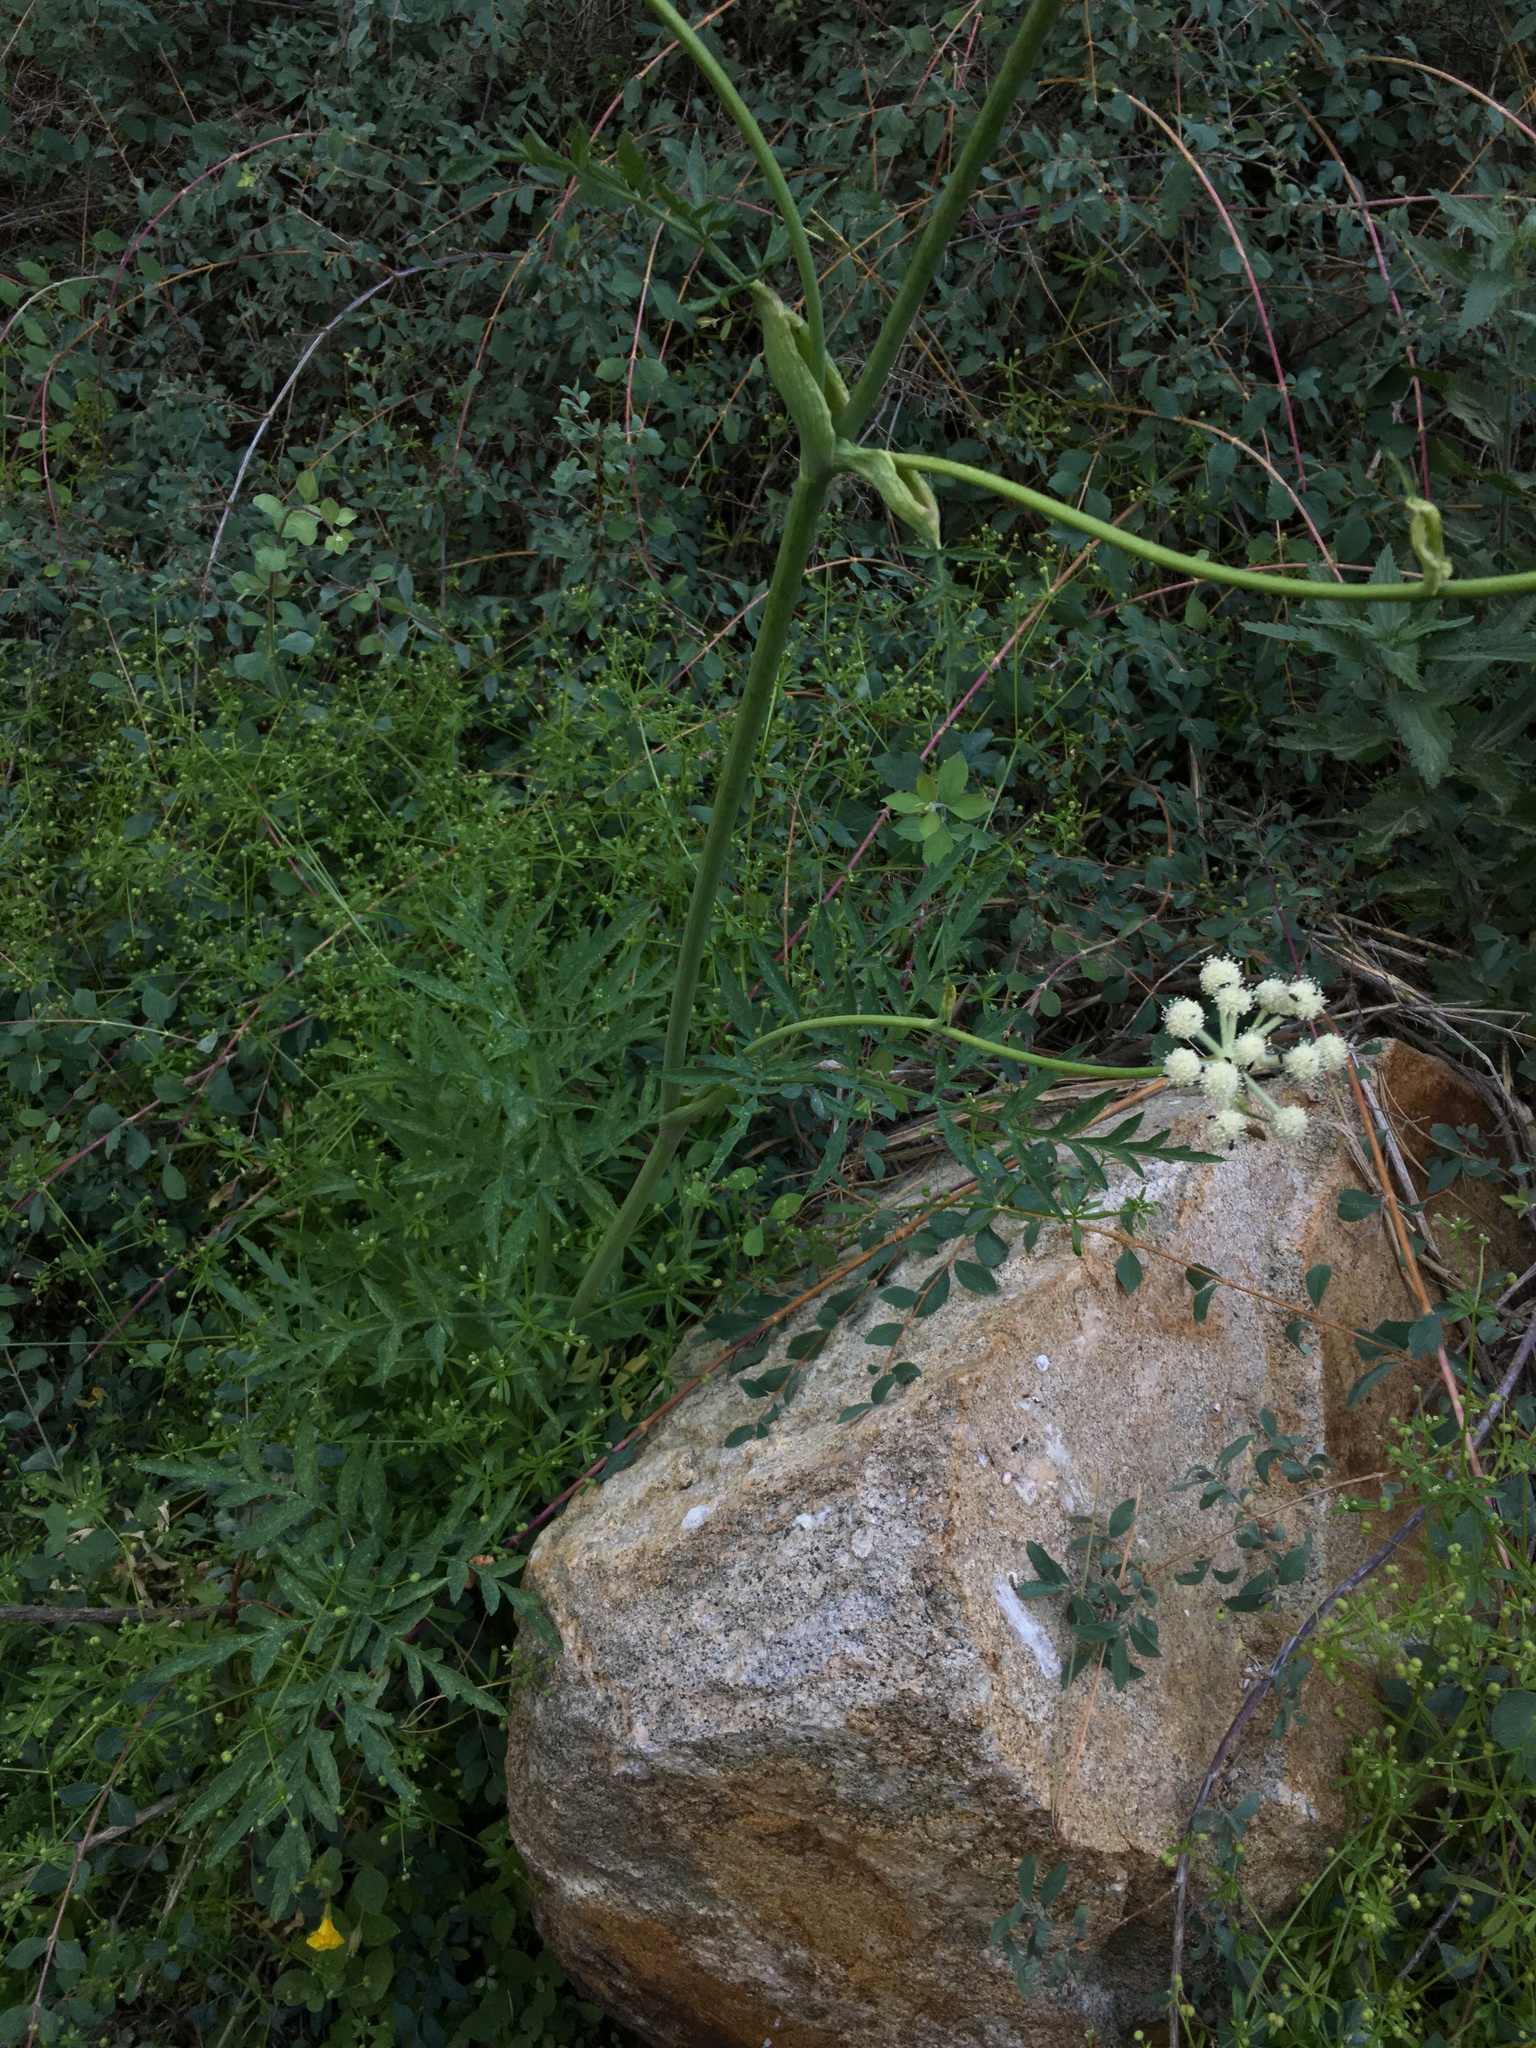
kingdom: Plantae
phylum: Tracheophyta
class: Magnoliopsida
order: Apiales
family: Apiaceae
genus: Angelica
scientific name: Angelica capitellata
